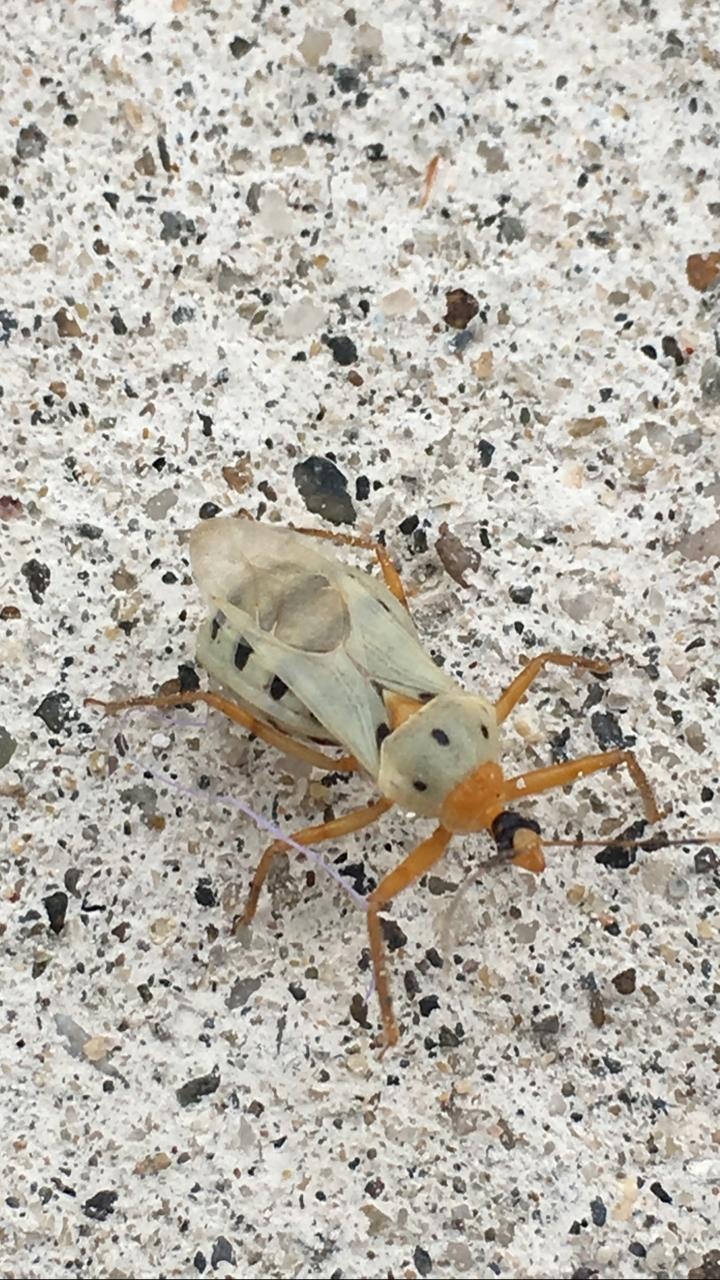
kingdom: Animalia
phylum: Arthropoda
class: Insecta
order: Hemiptera
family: Reduviidae
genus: Castolus
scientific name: Castolus trinotatus
